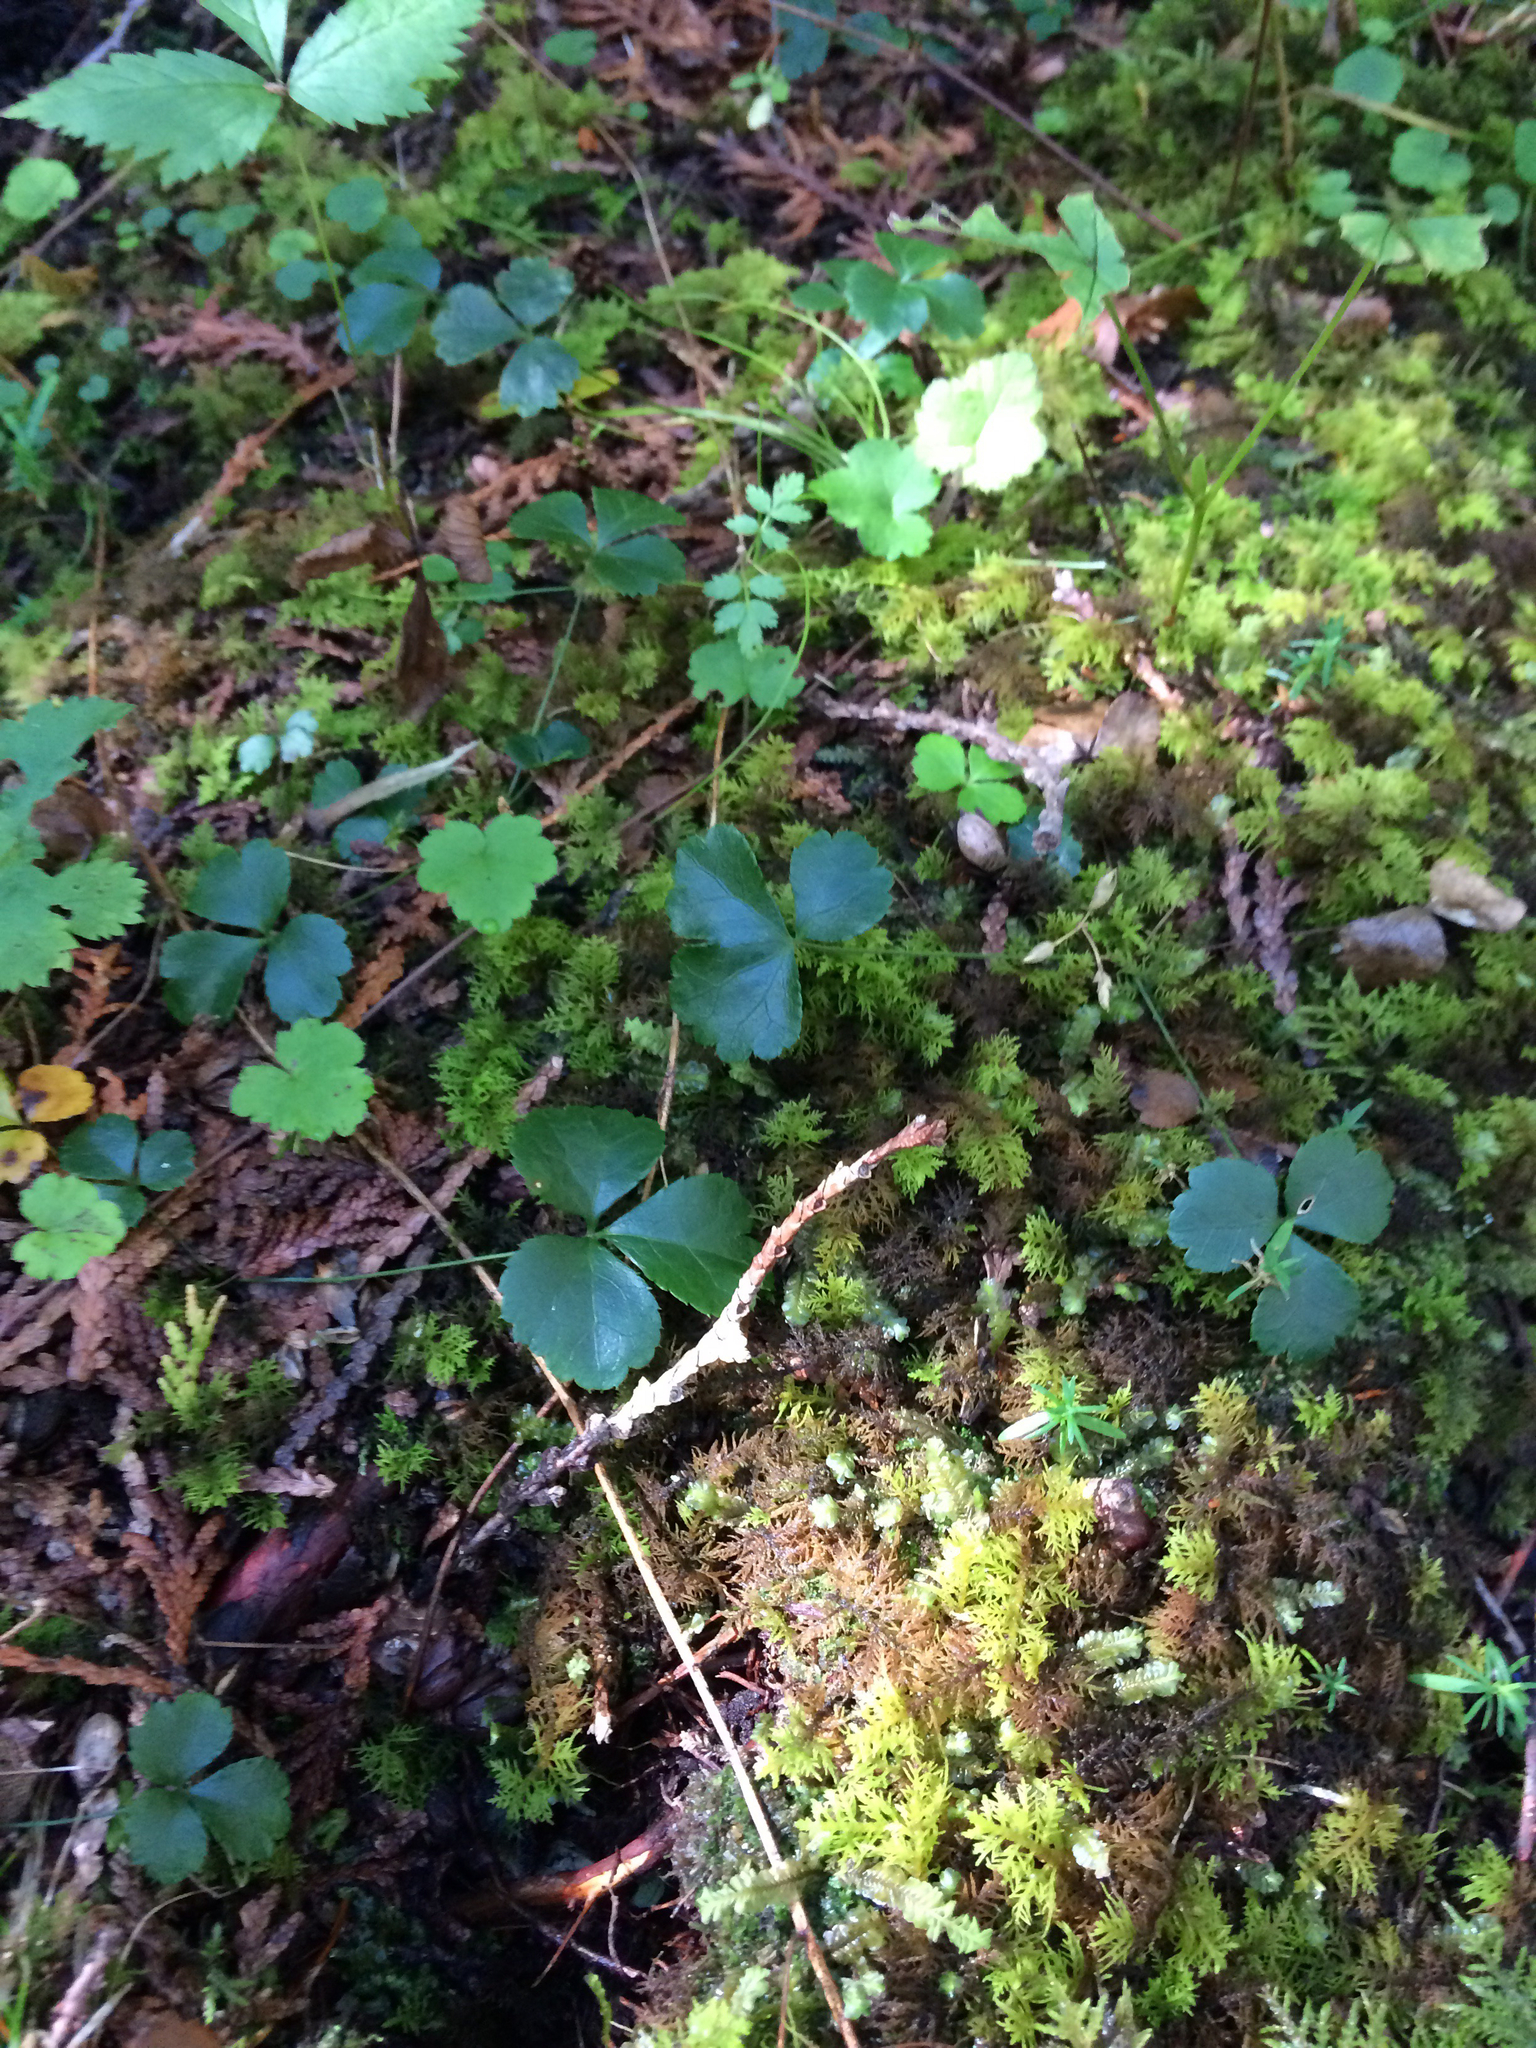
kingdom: Plantae
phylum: Tracheophyta
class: Magnoliopsida
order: Ranunculales
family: Ranunculaceae
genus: Coptis
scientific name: Coptis trifolia
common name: Canker-root
